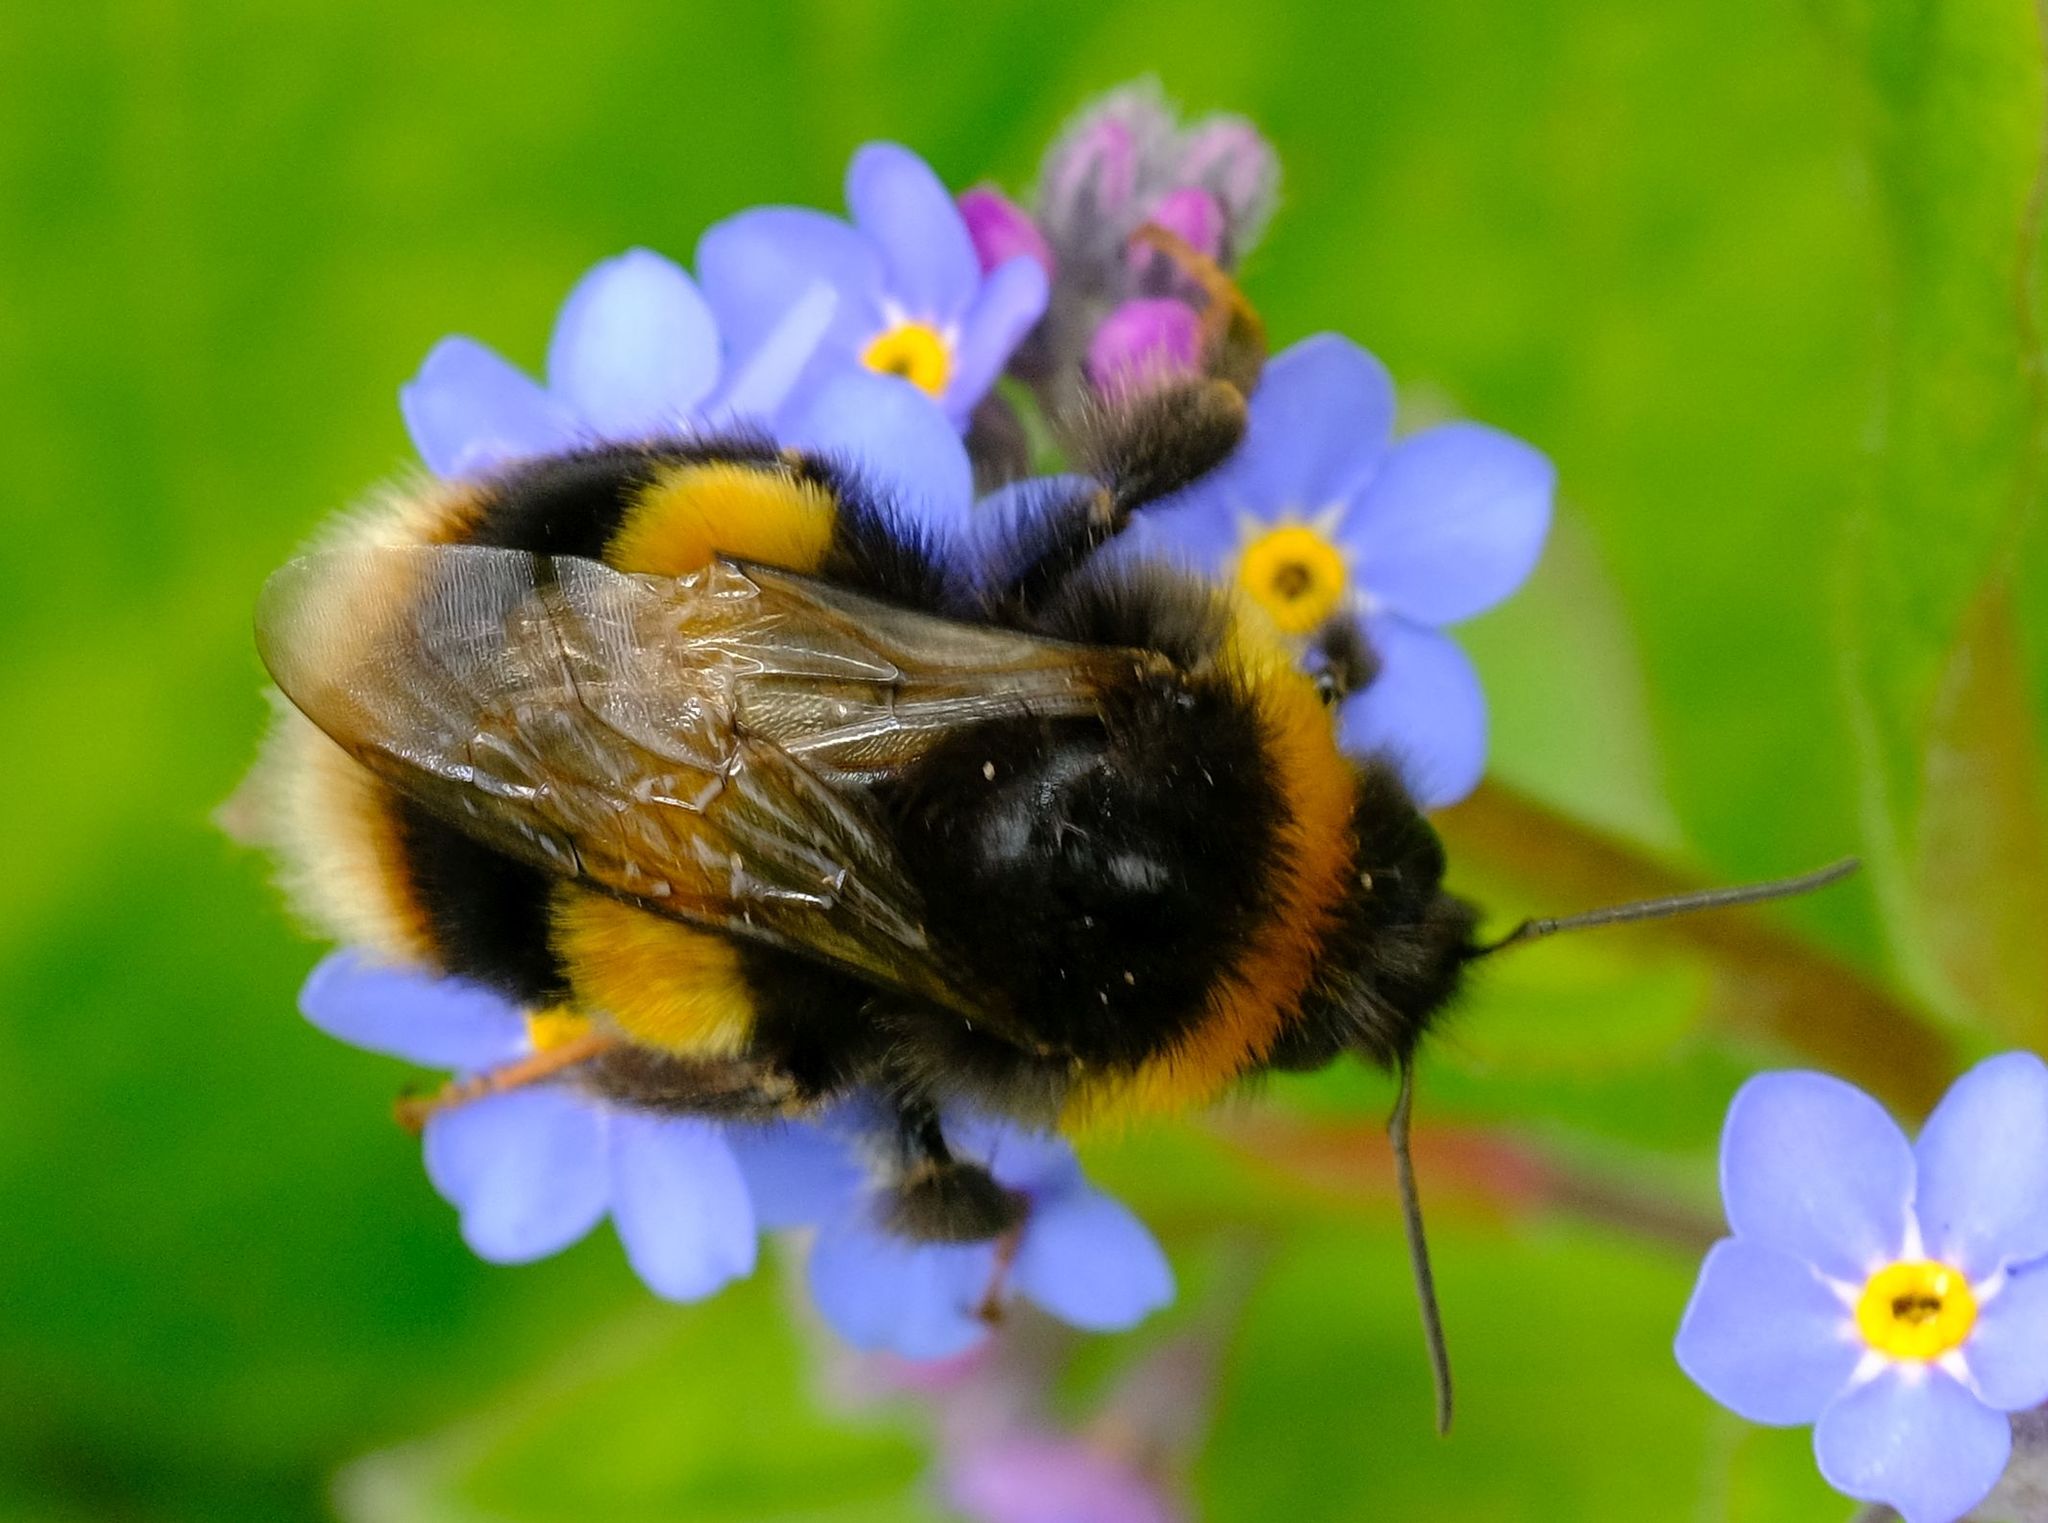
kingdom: Animalia
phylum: Arthropoda
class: Insecta
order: Hymenoptera
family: Apidae
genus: Bombus
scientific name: Bombus terrestris
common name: Buff-tailed bumblebee
